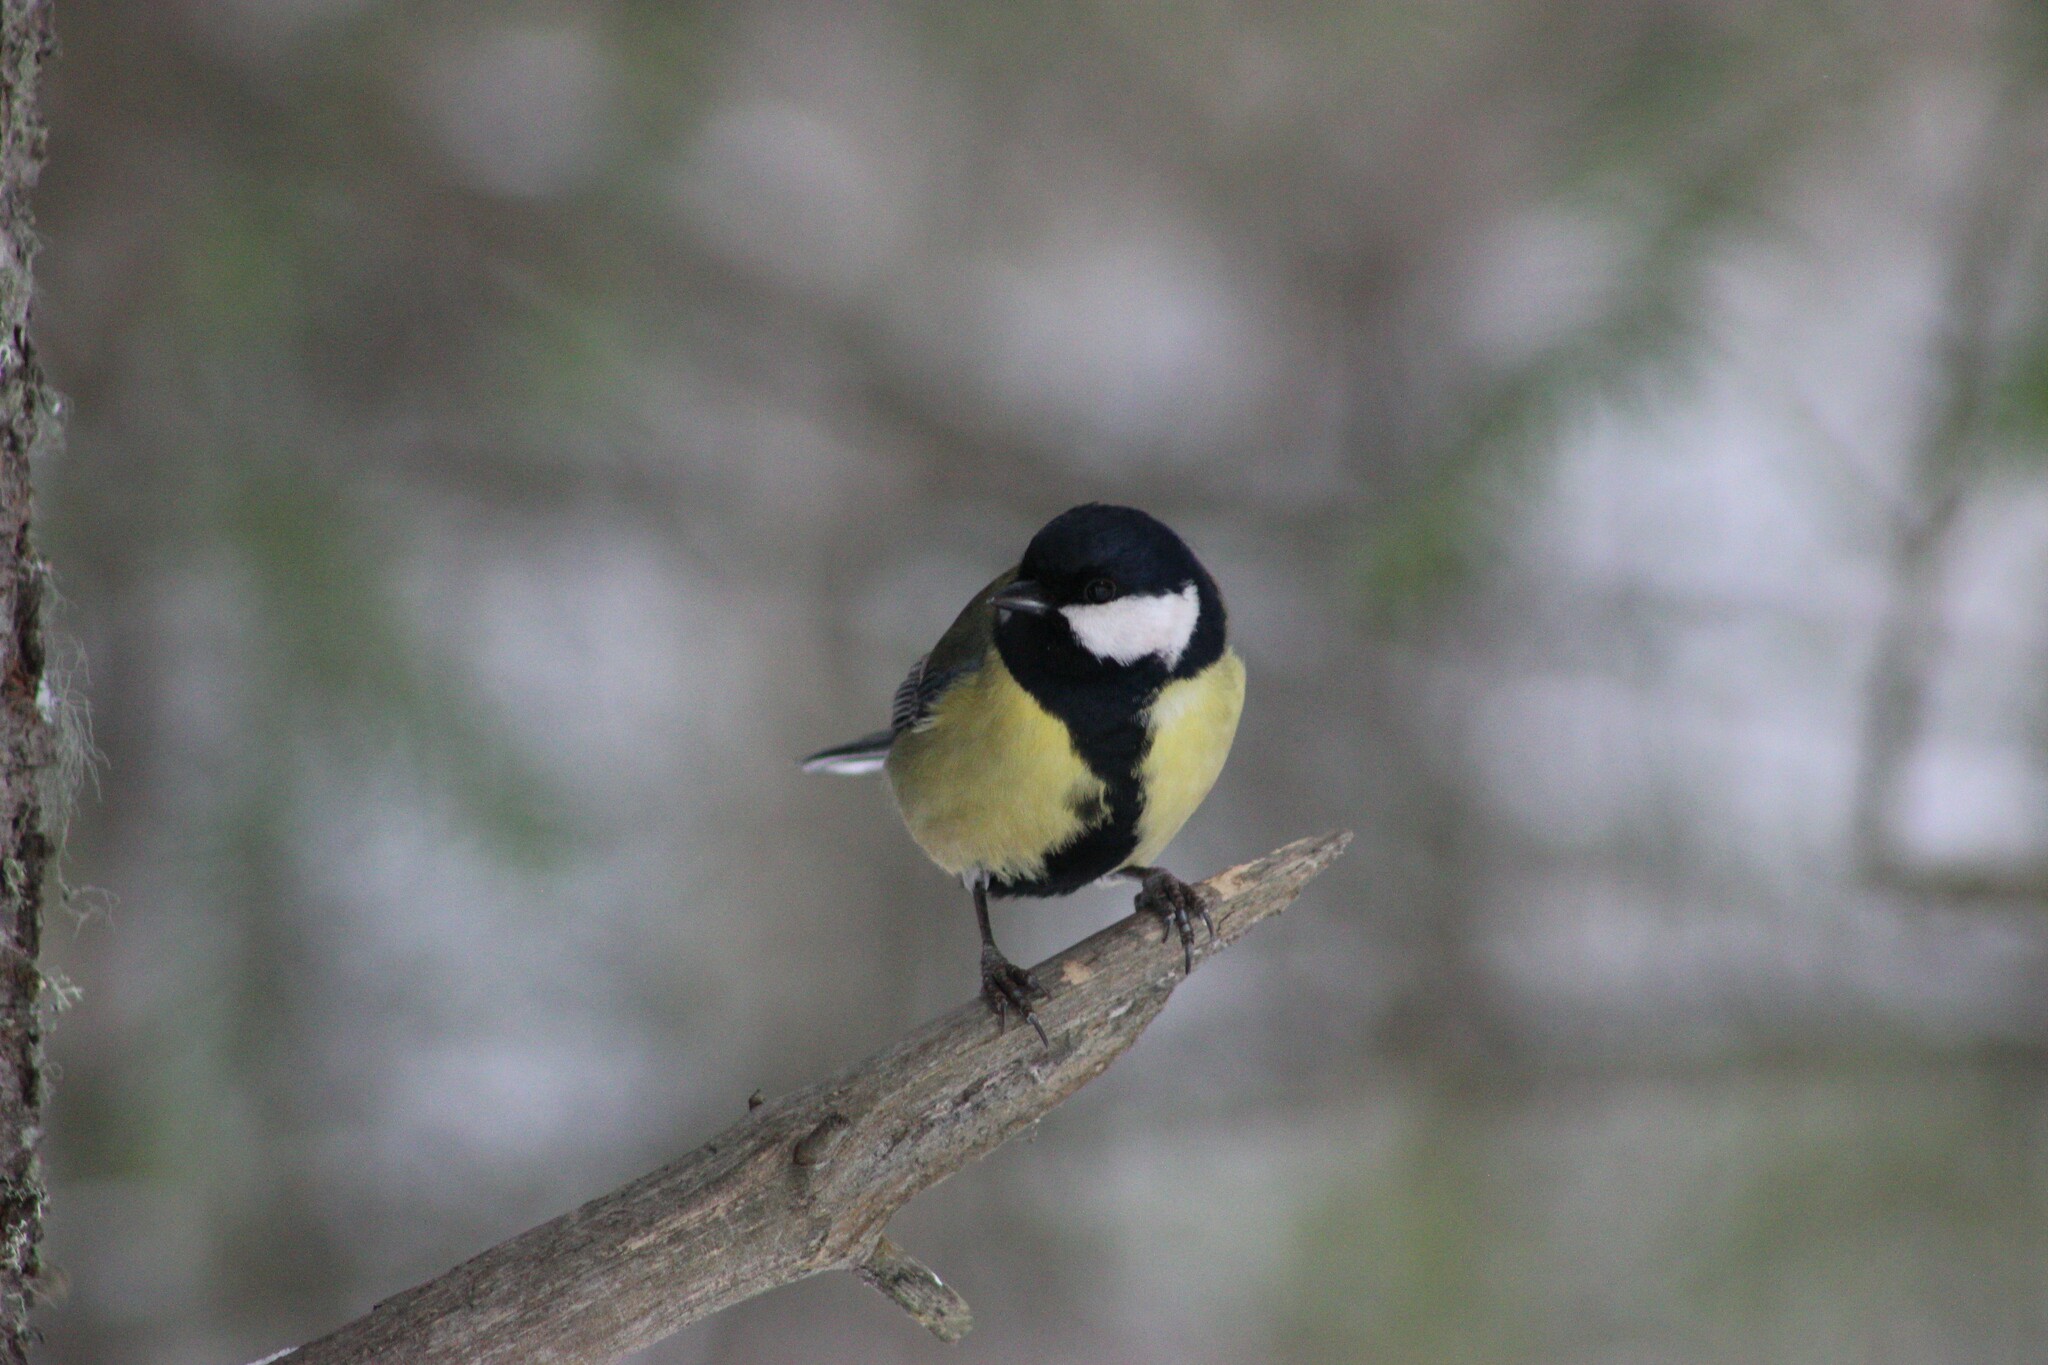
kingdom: Animalia
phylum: Chordata
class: Aves
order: Passeriformes
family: Paridae
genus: Parus
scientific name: Parus major
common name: Great tit
